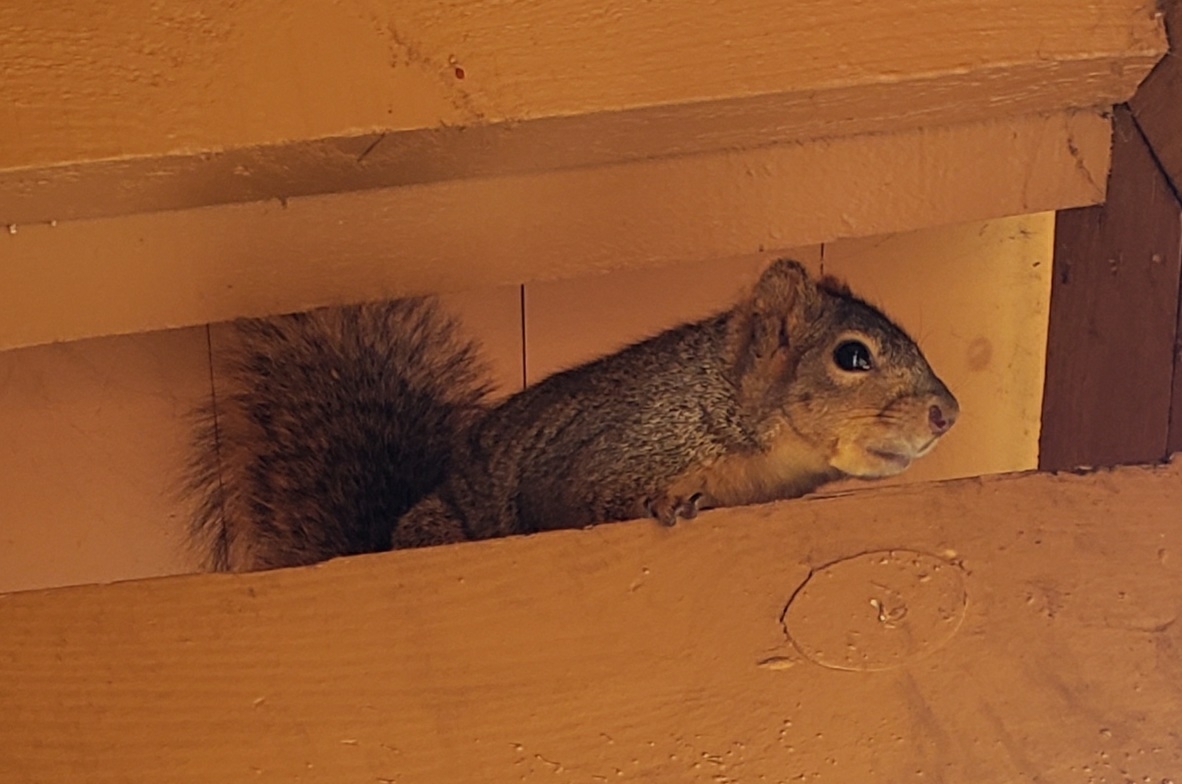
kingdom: Animalia
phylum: Chordata
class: Mammalia
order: Rodentia
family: Sciuridae
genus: Sciurus
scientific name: Sciurus niger
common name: Fox squirrel
